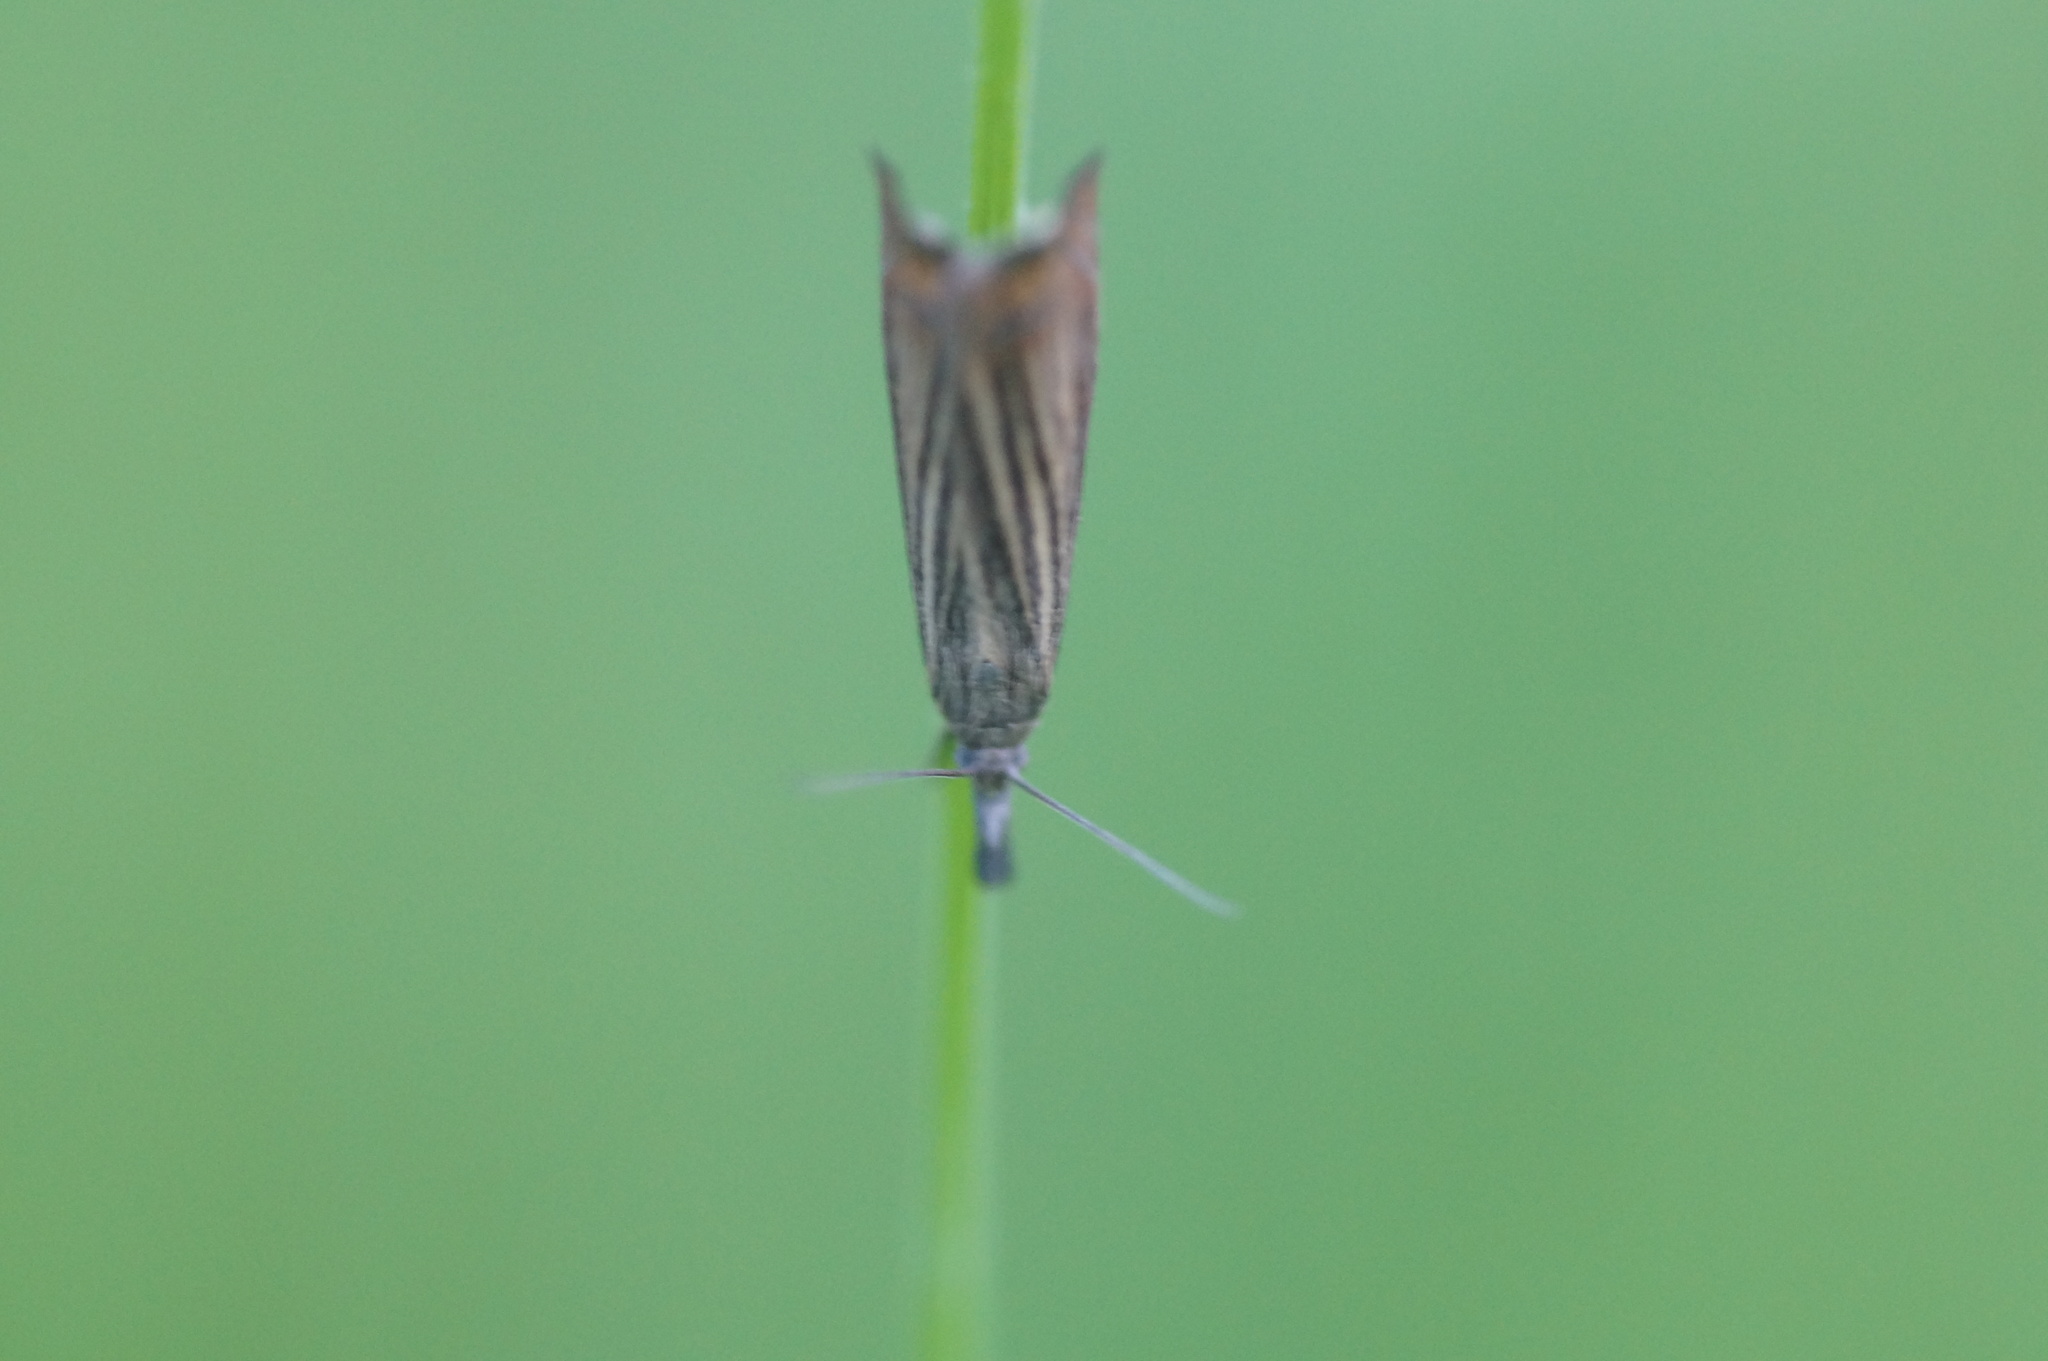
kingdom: Animalia
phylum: Arthropoda
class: Insecta
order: Lepidoptera
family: Crambidae
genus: Chrysoteuchia
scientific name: Chrysoteuchia culmella
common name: Garden grass-veneer
